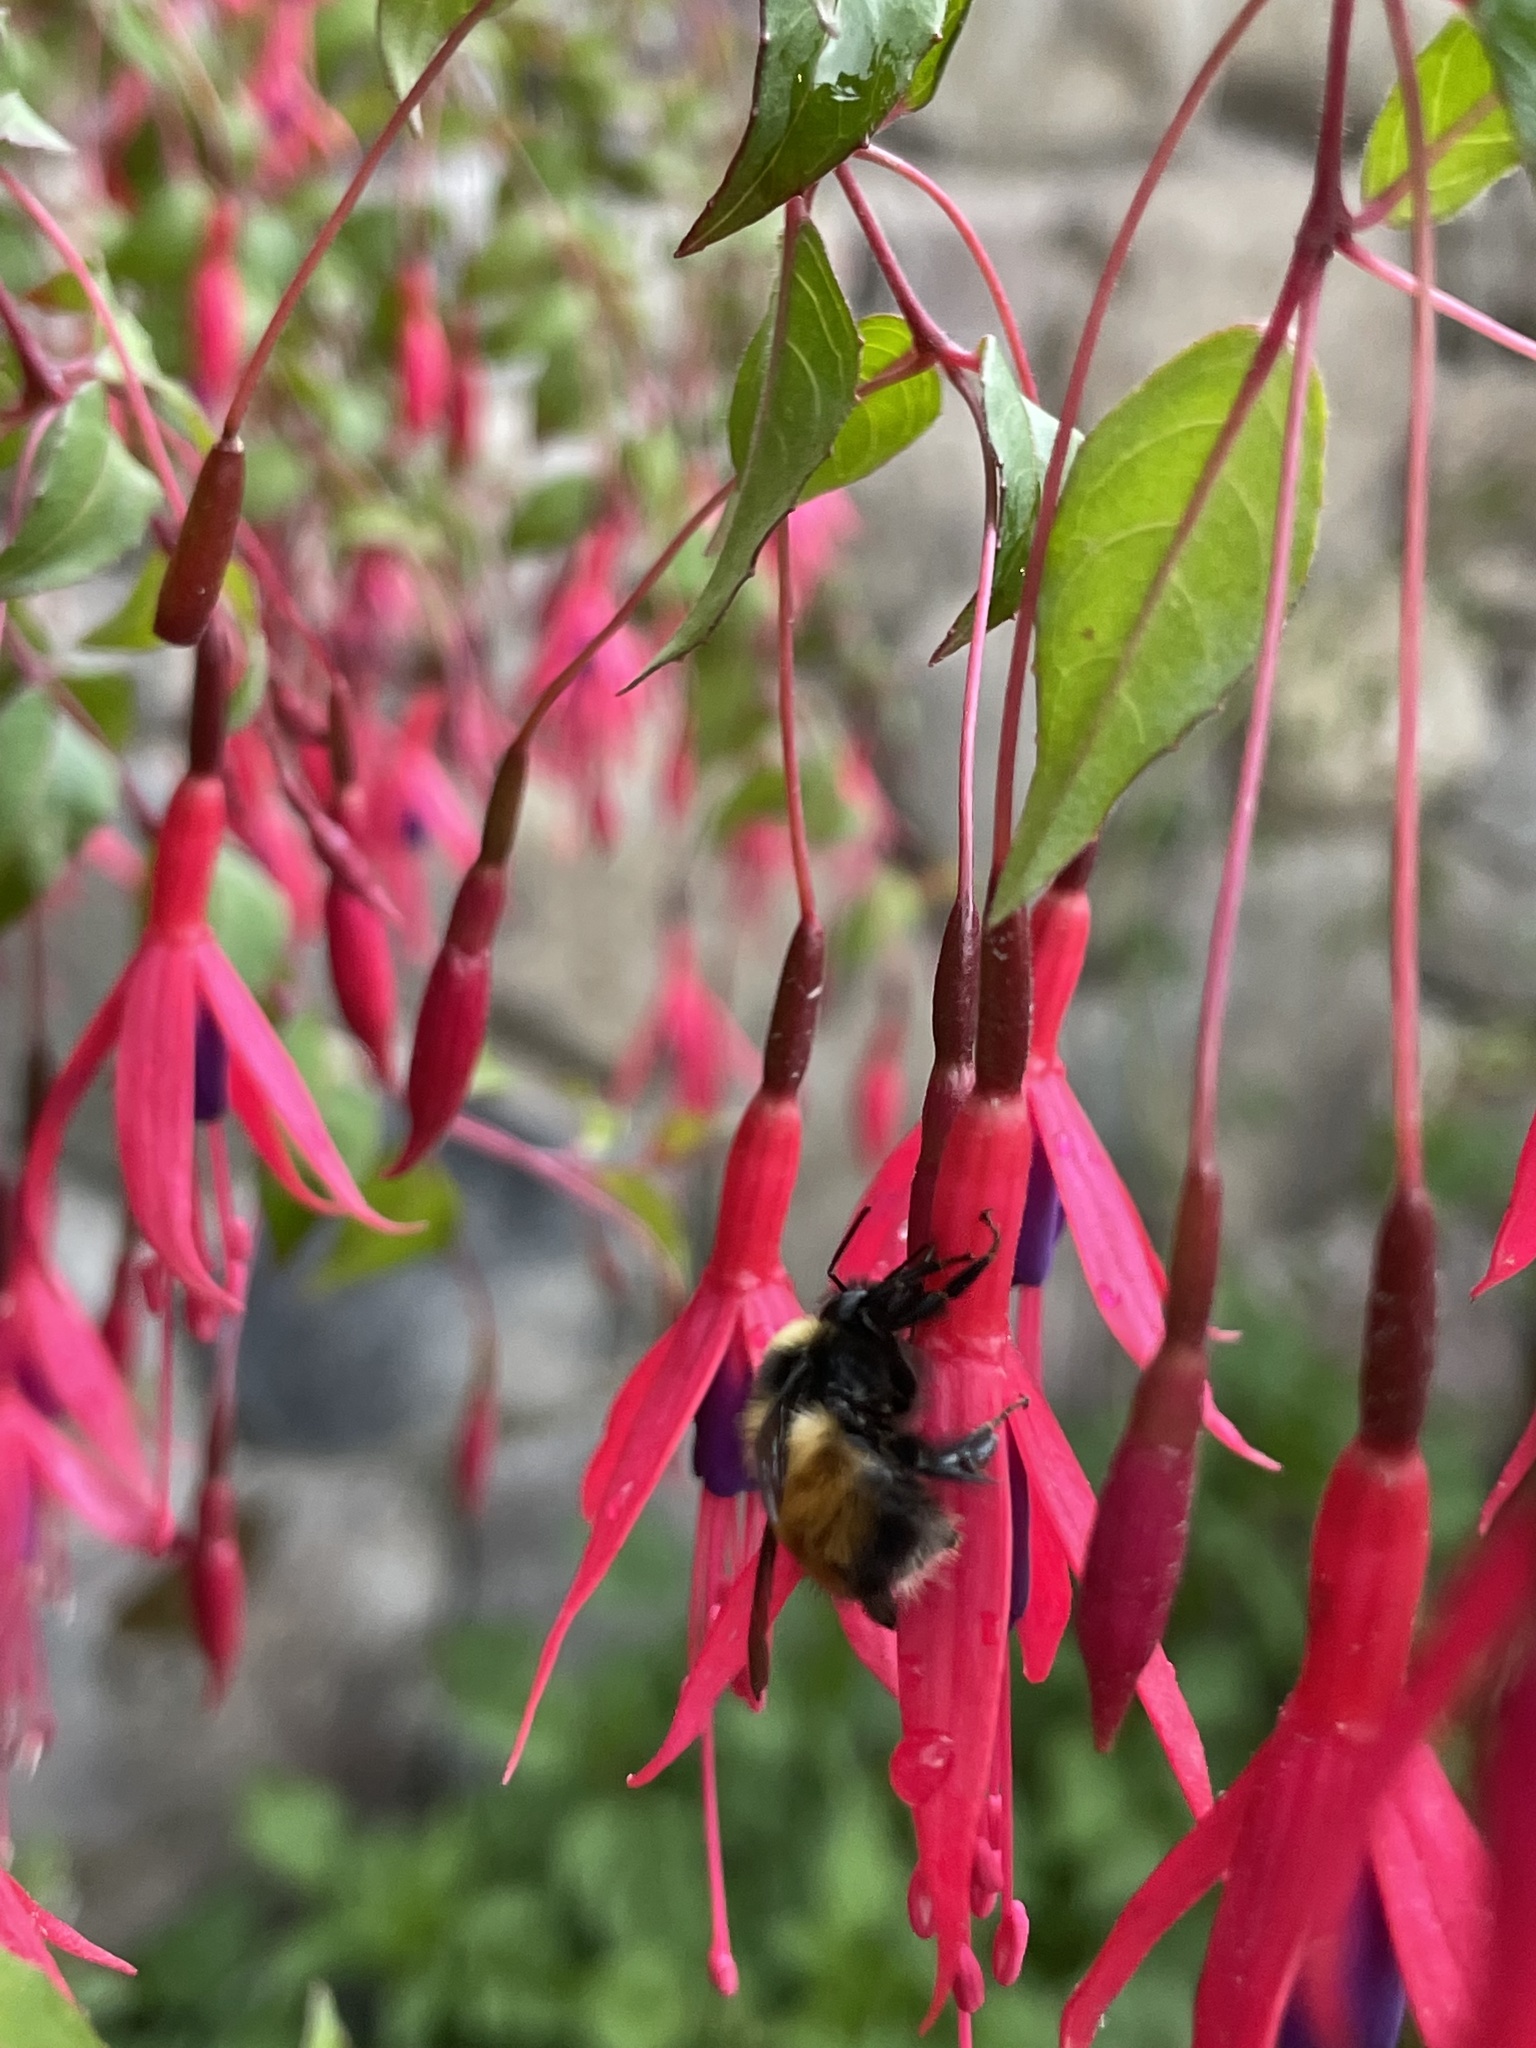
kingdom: Animalia
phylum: Arthropoda
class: Insecta
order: Hymenoptera
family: Apidae
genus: Bombus
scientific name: Bombus robustus
